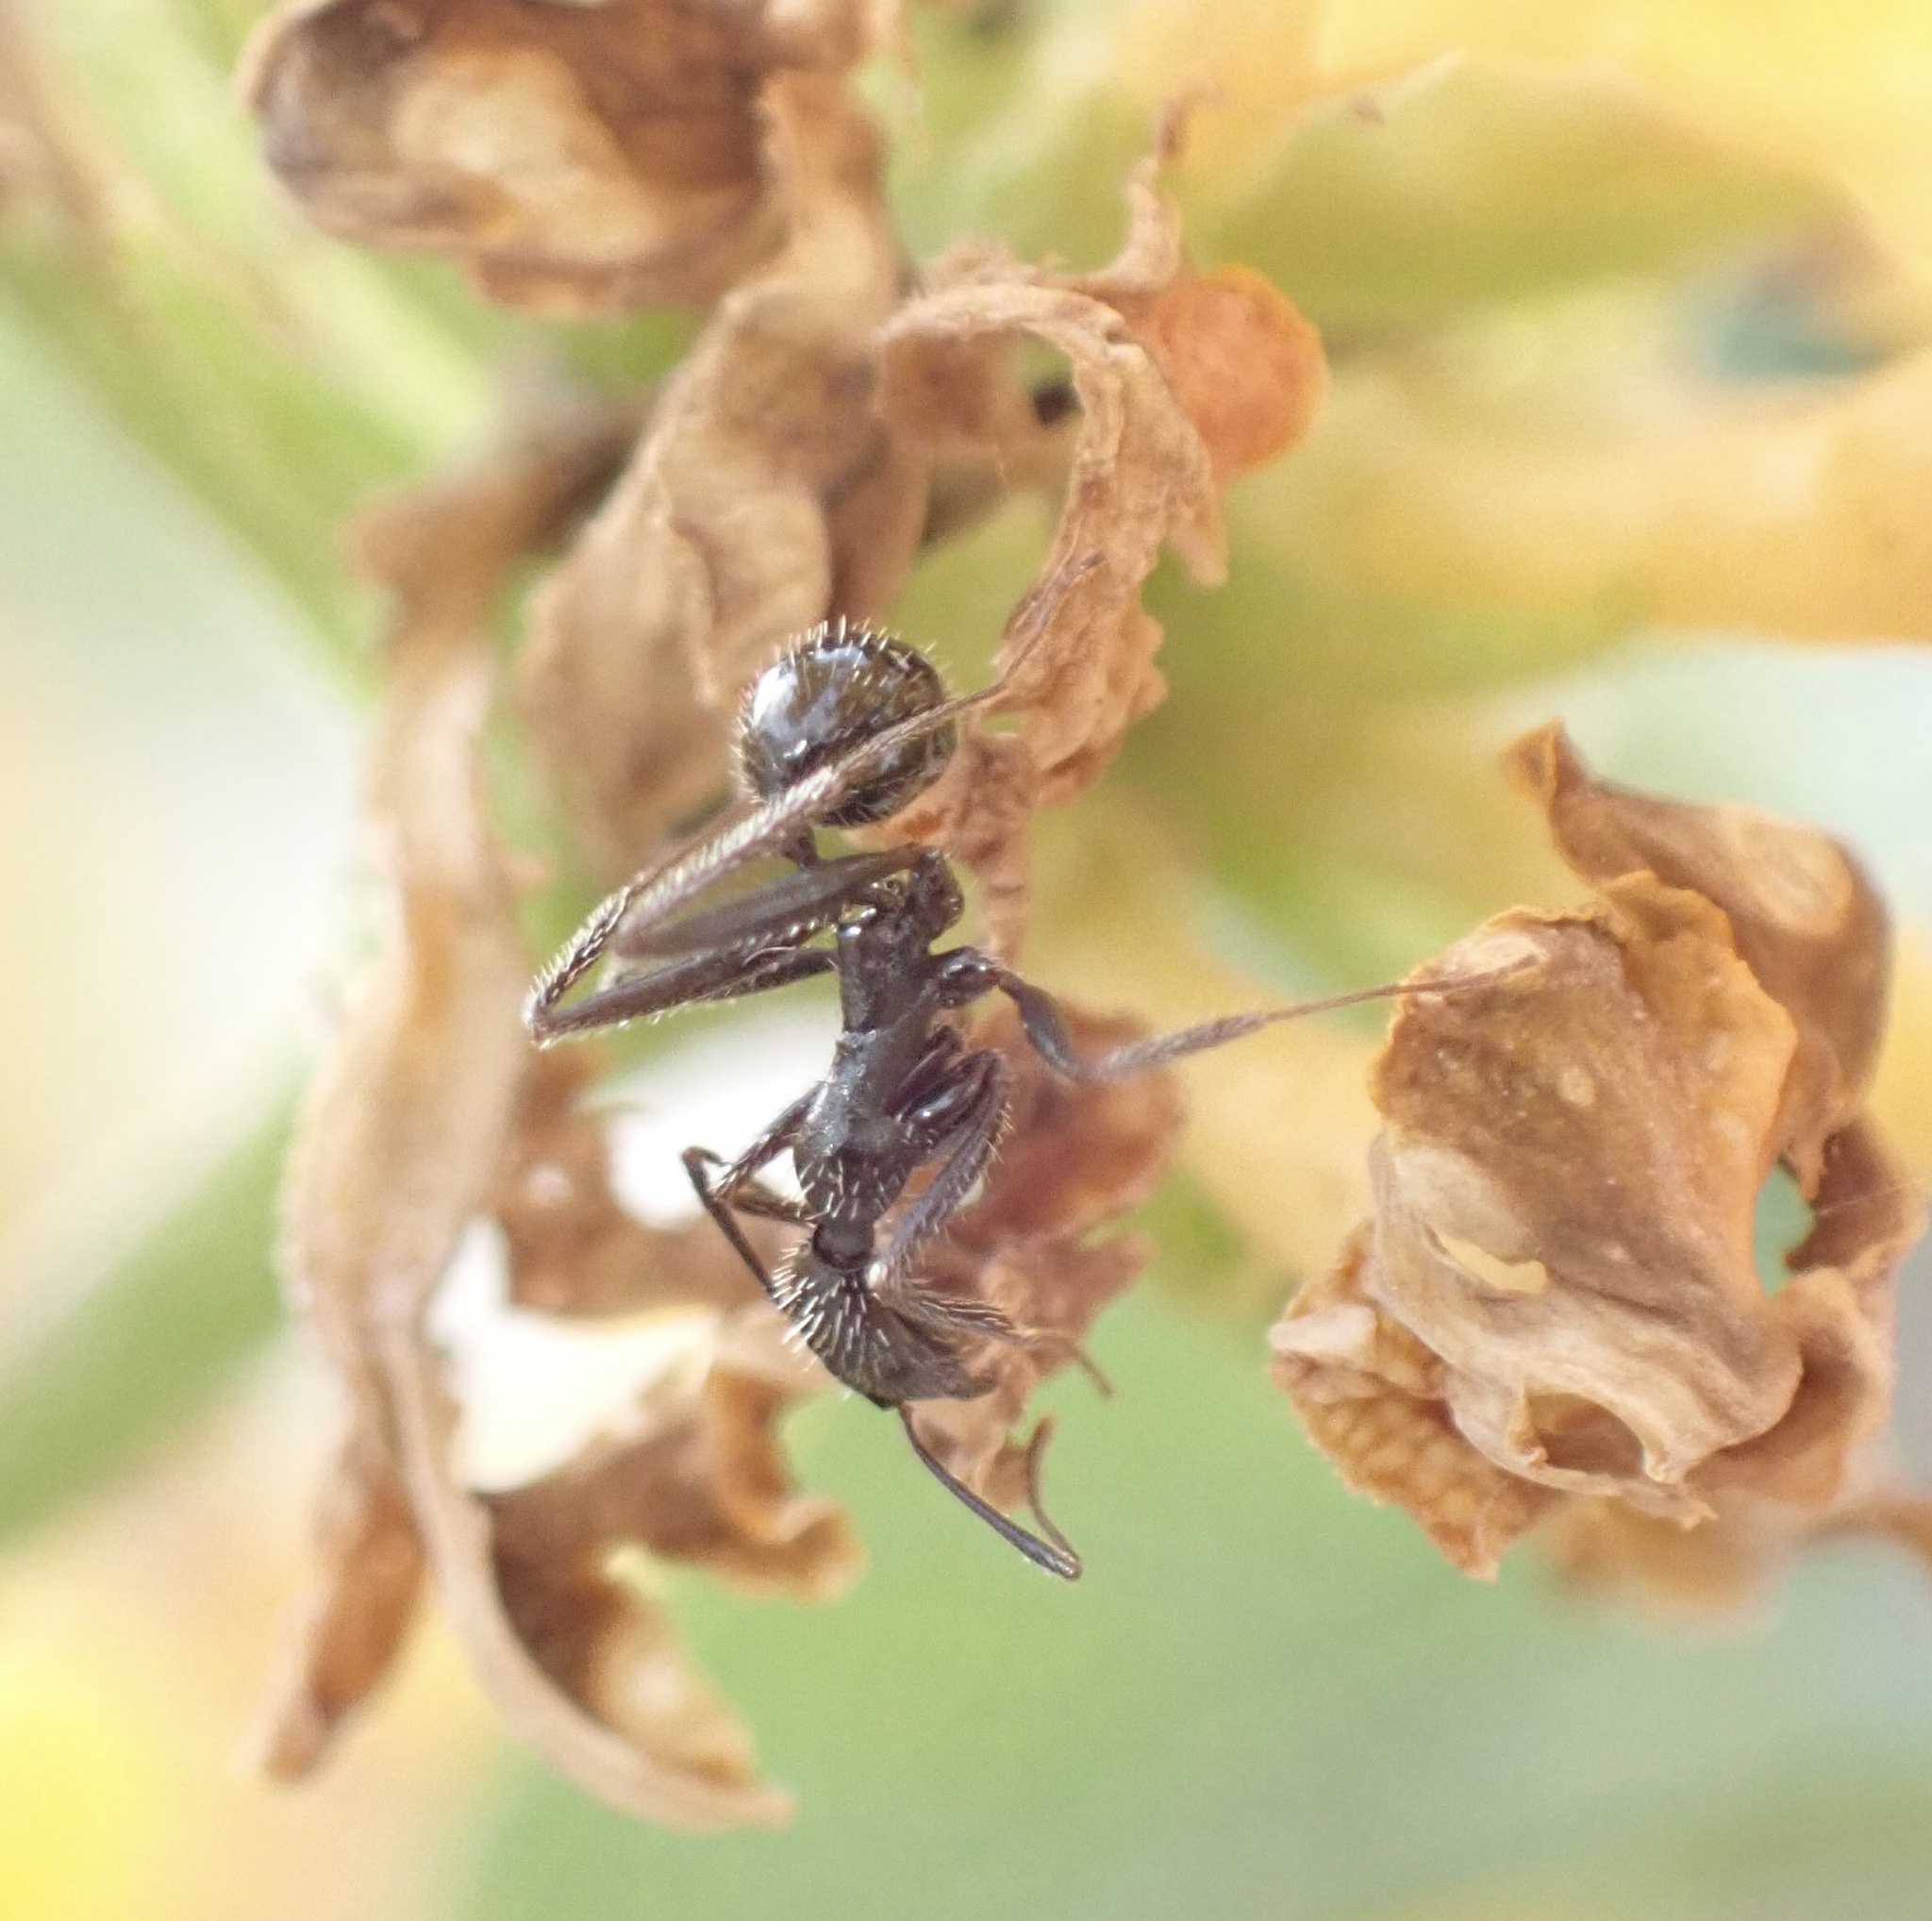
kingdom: Animalia
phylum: Arthropoda
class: Insecta
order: Hymenoptera
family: Formicidae
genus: Aphaenogaster
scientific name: Aphaenogaster
